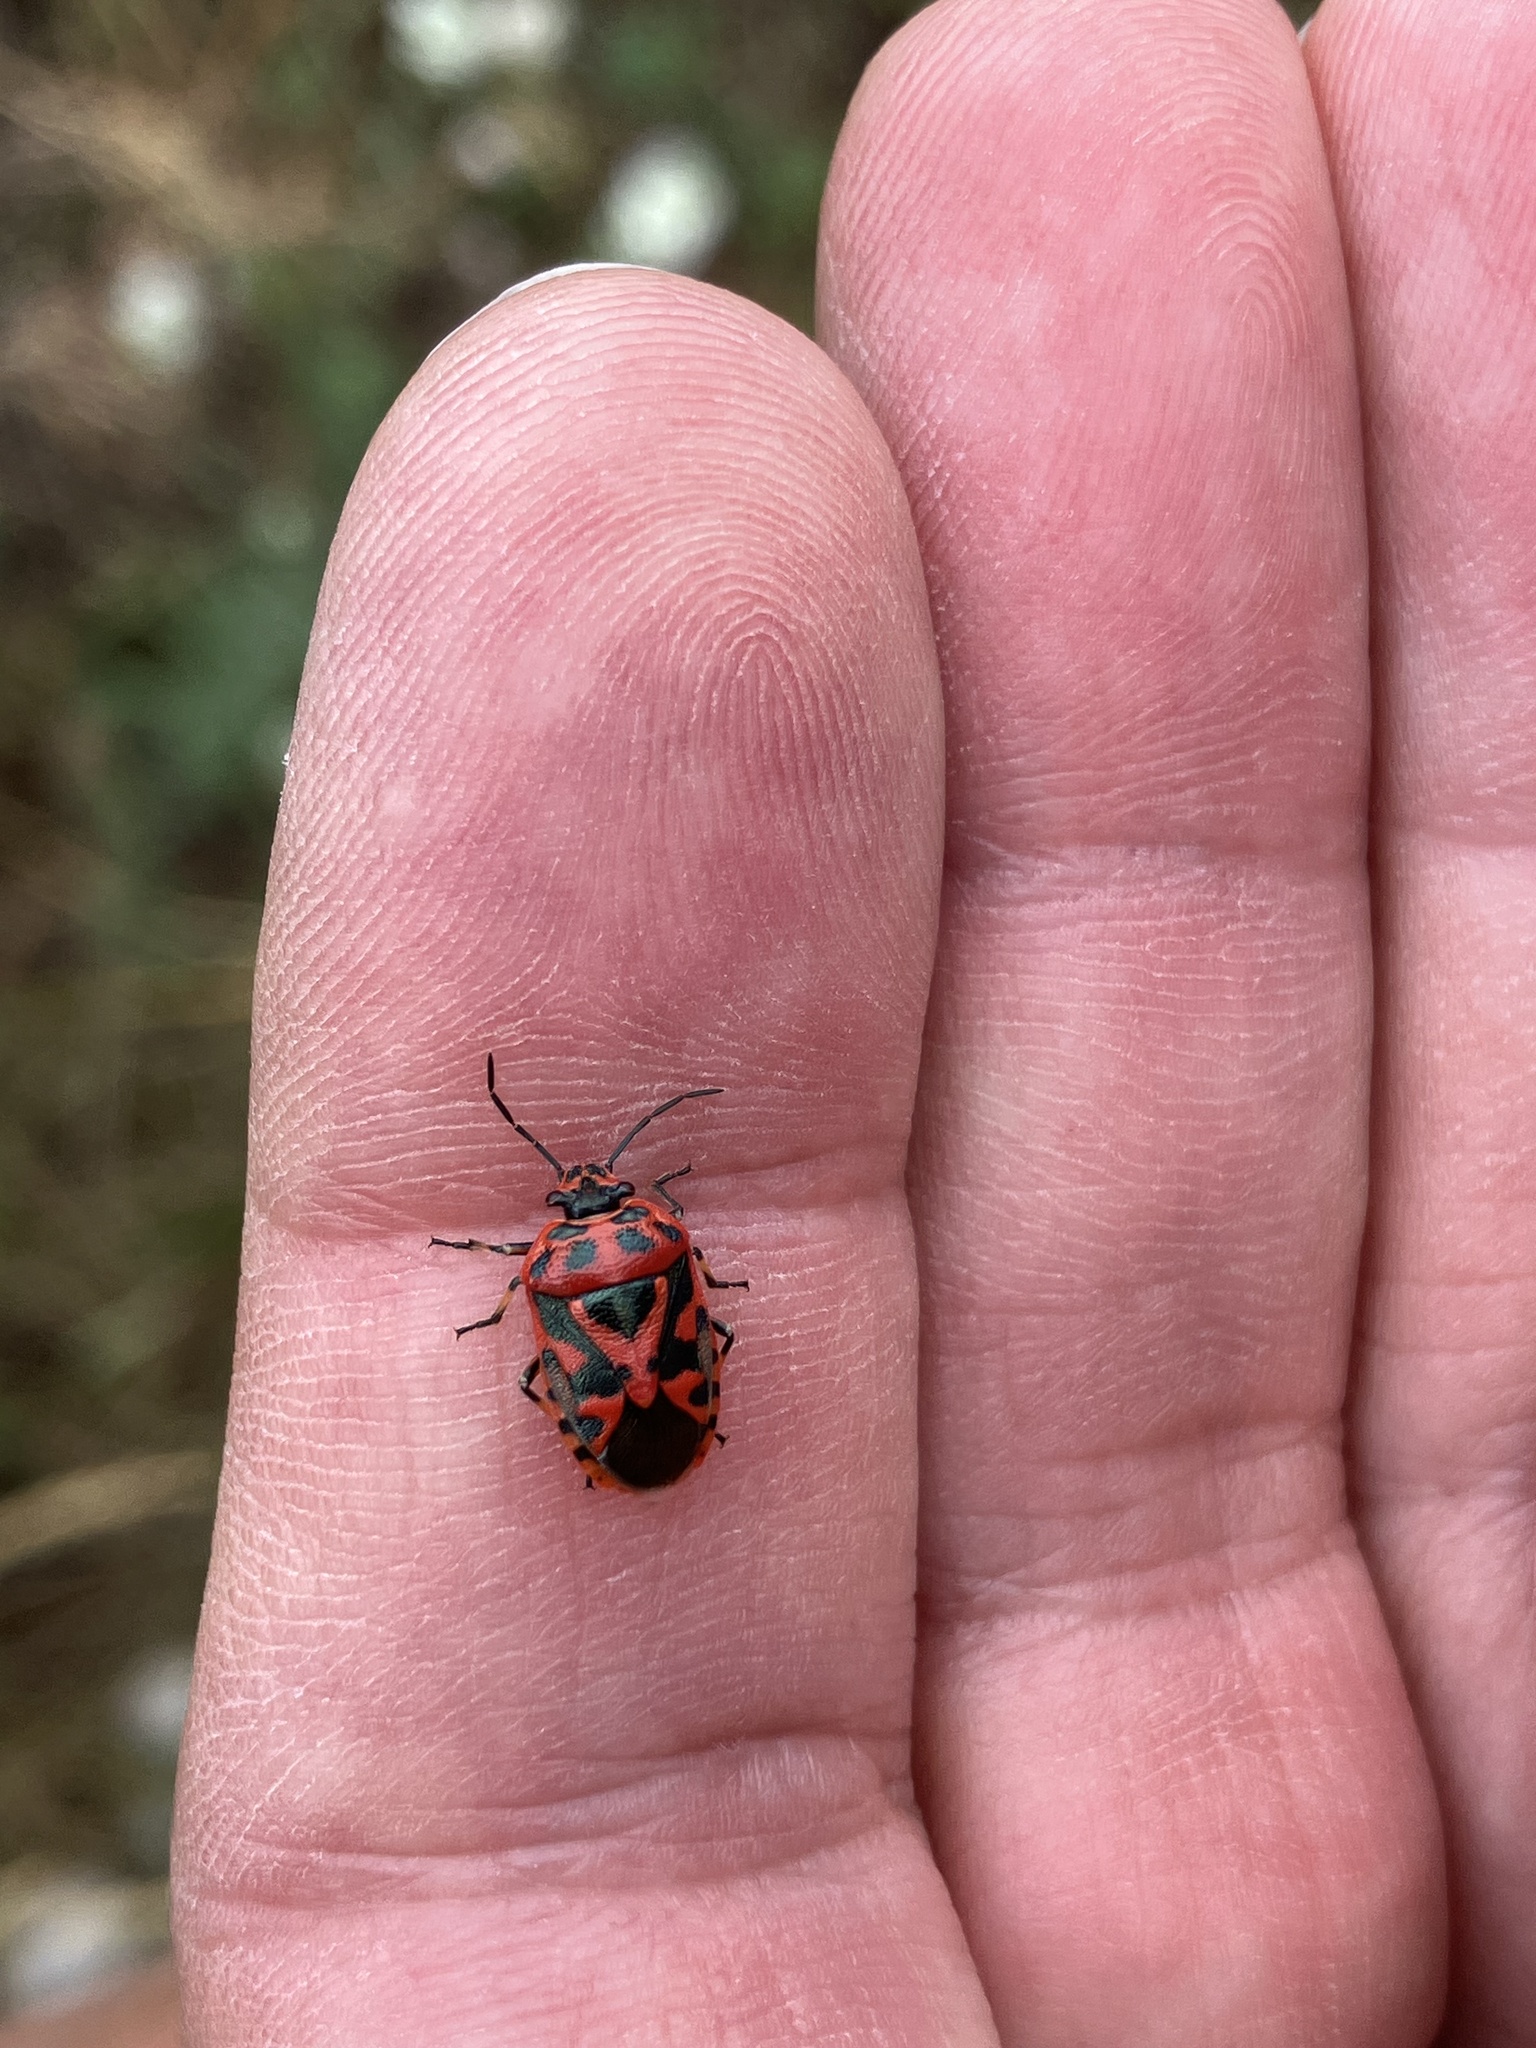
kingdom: Animalia
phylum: Arthropoda
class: Insecta
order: Hemiptera
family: Pentatomidae
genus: Eurydema
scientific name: Eurydema ornata
